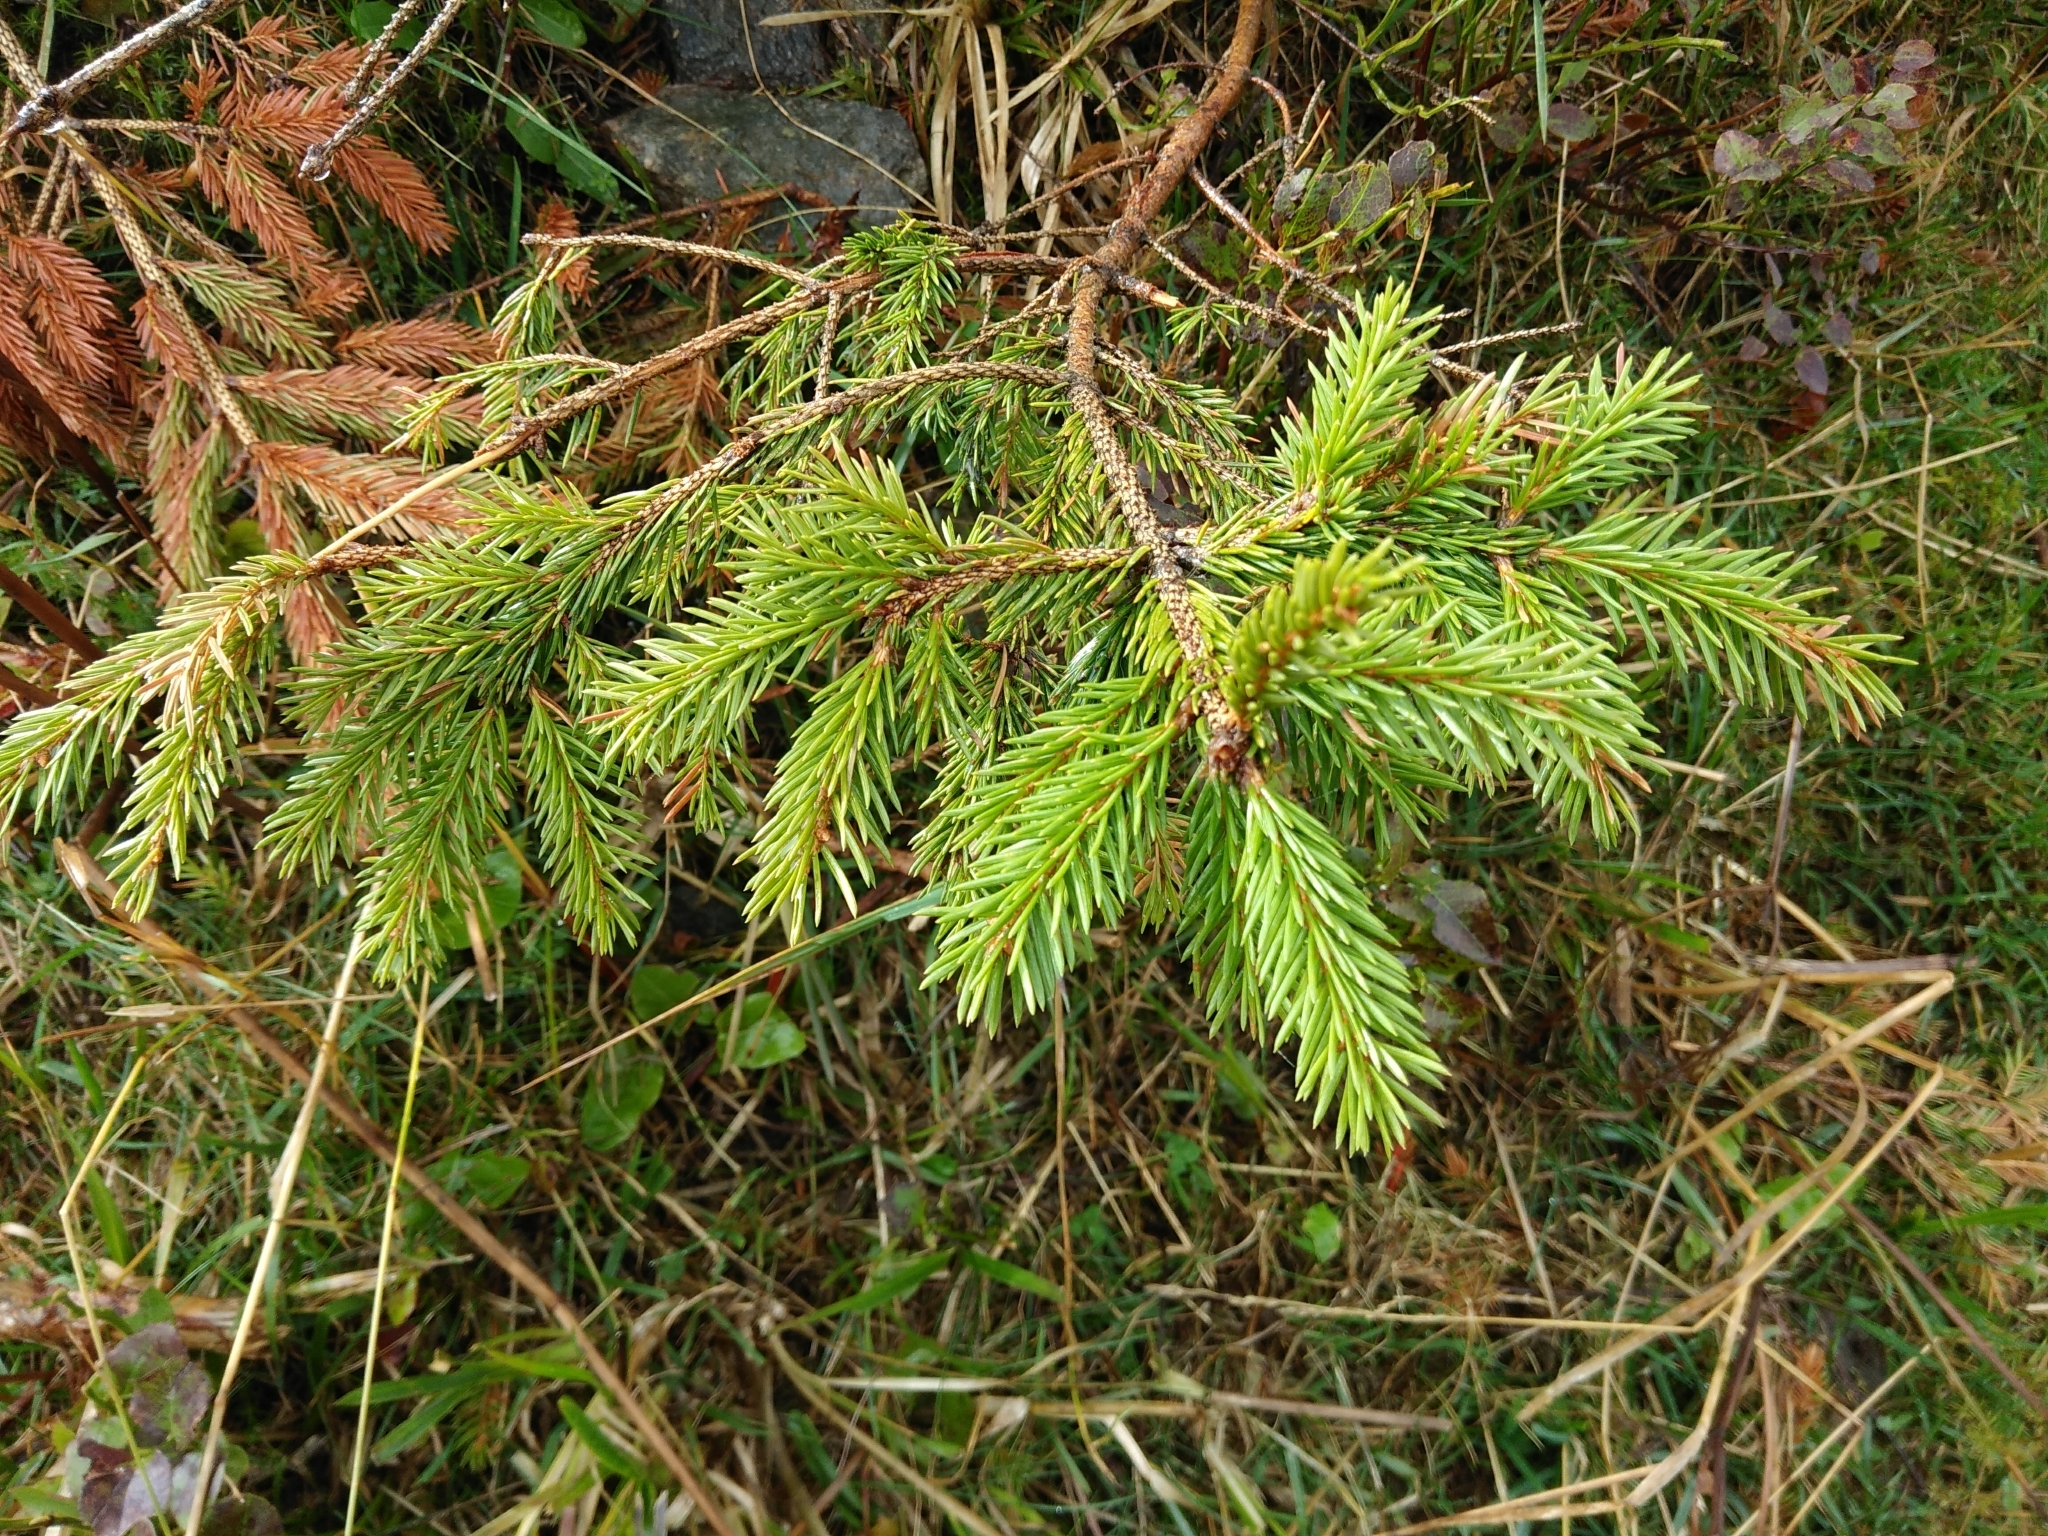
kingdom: Plantae
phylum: Tracheophyta
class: Pinopsida
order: Pinales
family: Pinaceae
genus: Picea
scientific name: Picea abies
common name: Norway spruce
